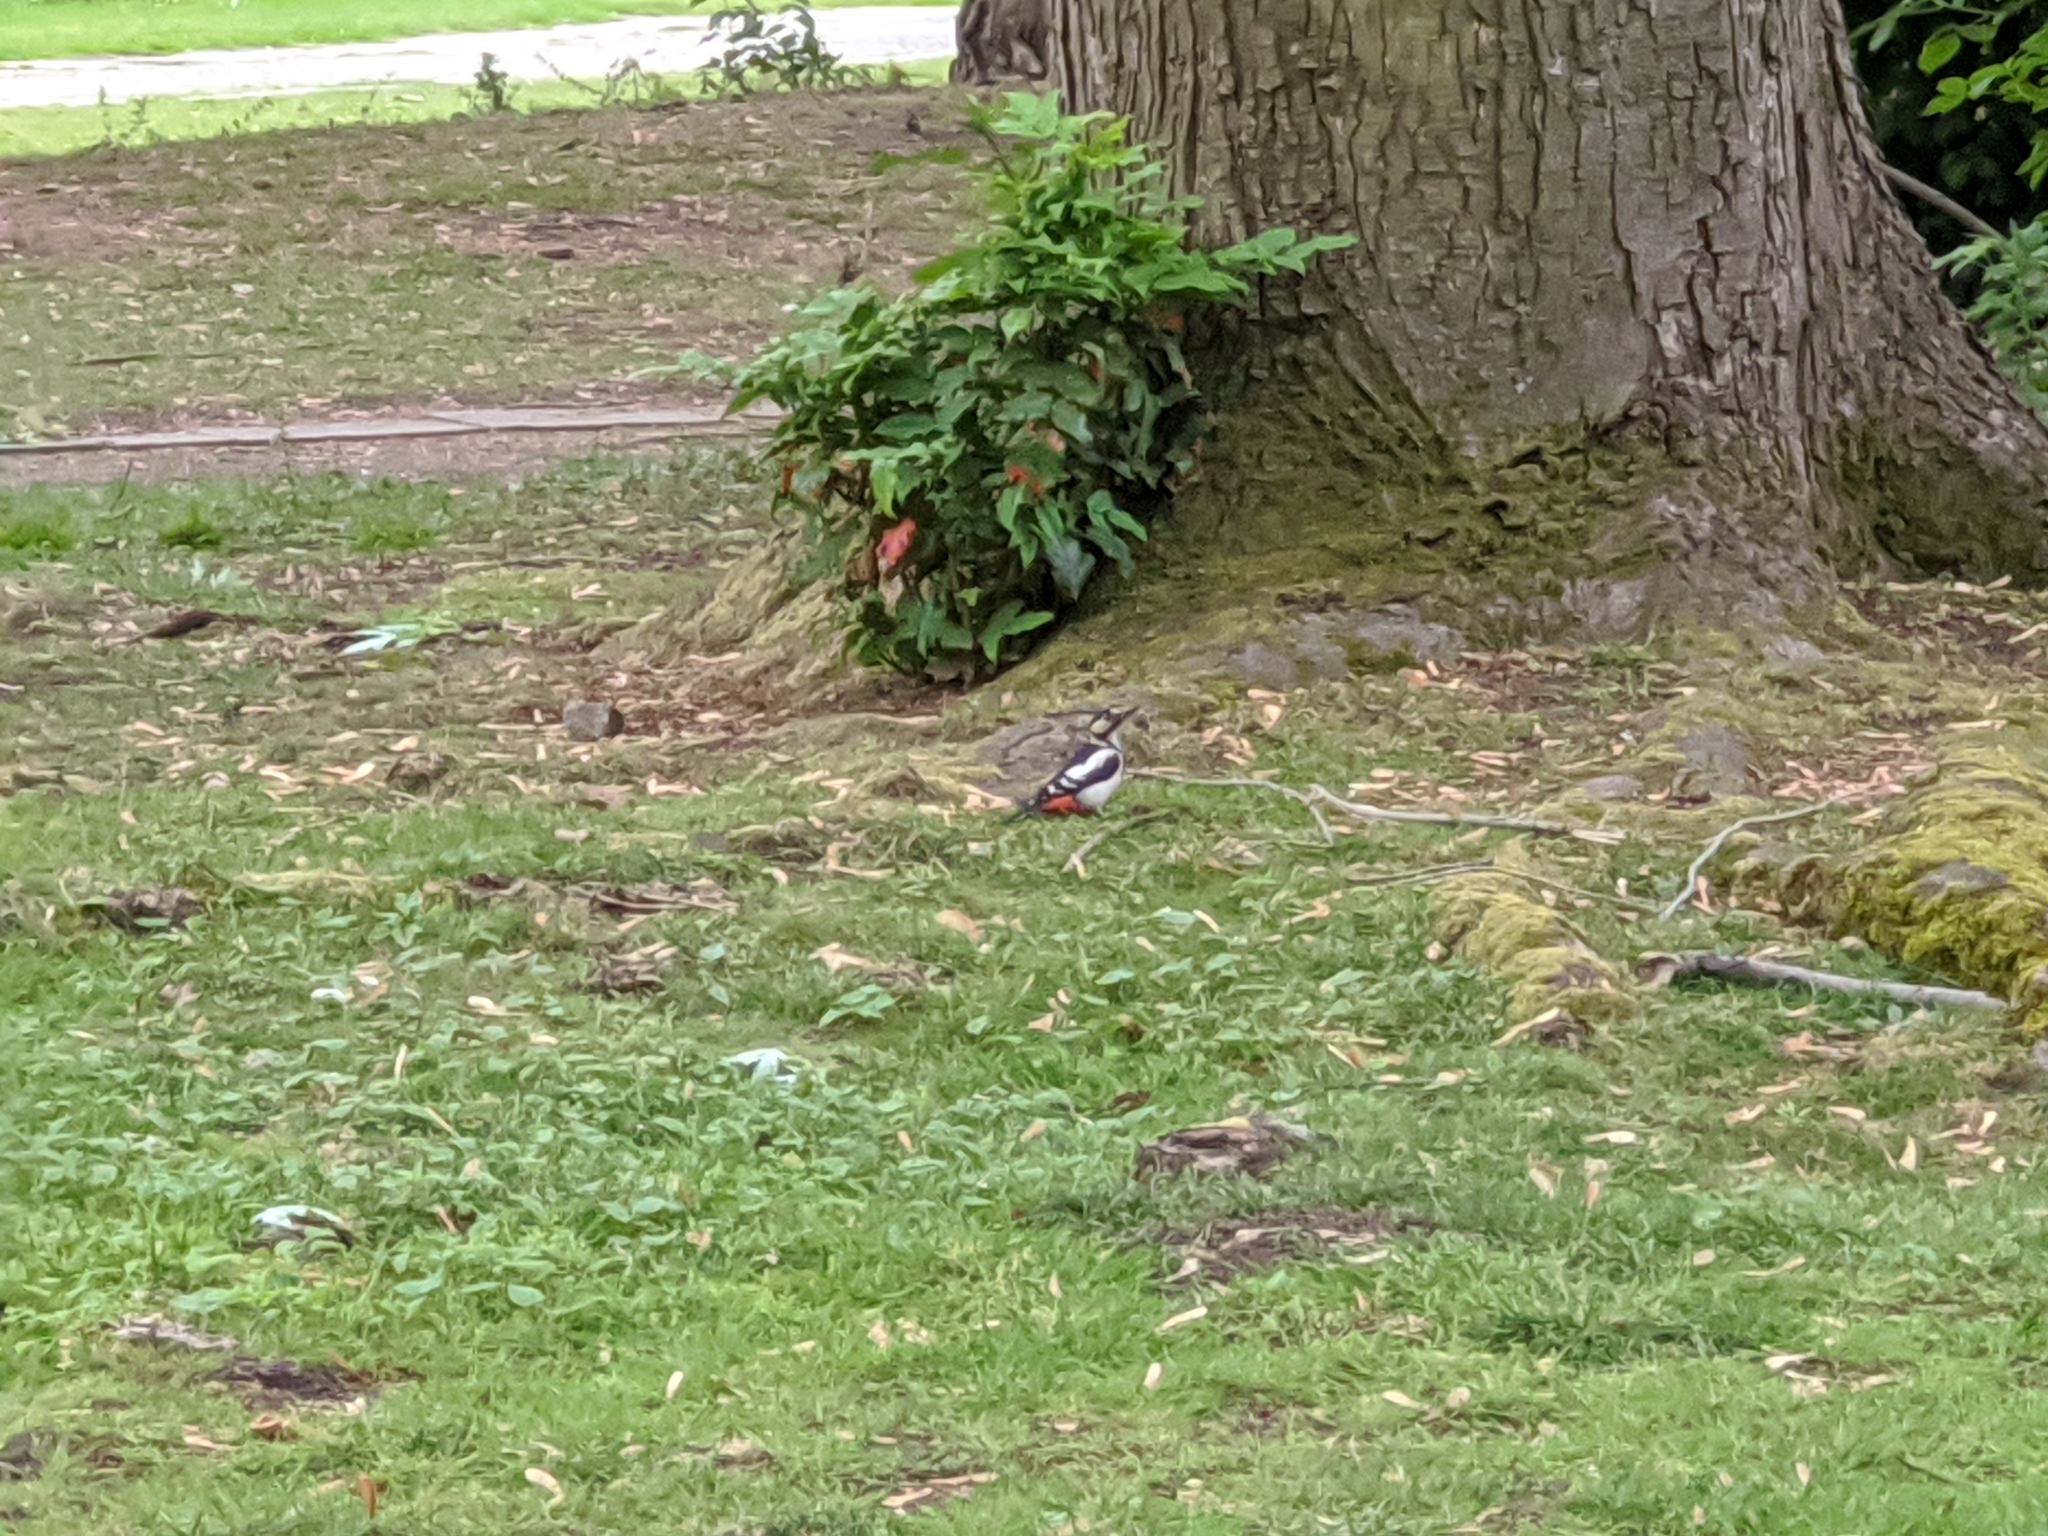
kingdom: Animalia
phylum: Chordata
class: Aves
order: Piciformes
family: Picidae
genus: Dendrocopos
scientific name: Dendrocopos major
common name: Great spotted woodpecker
